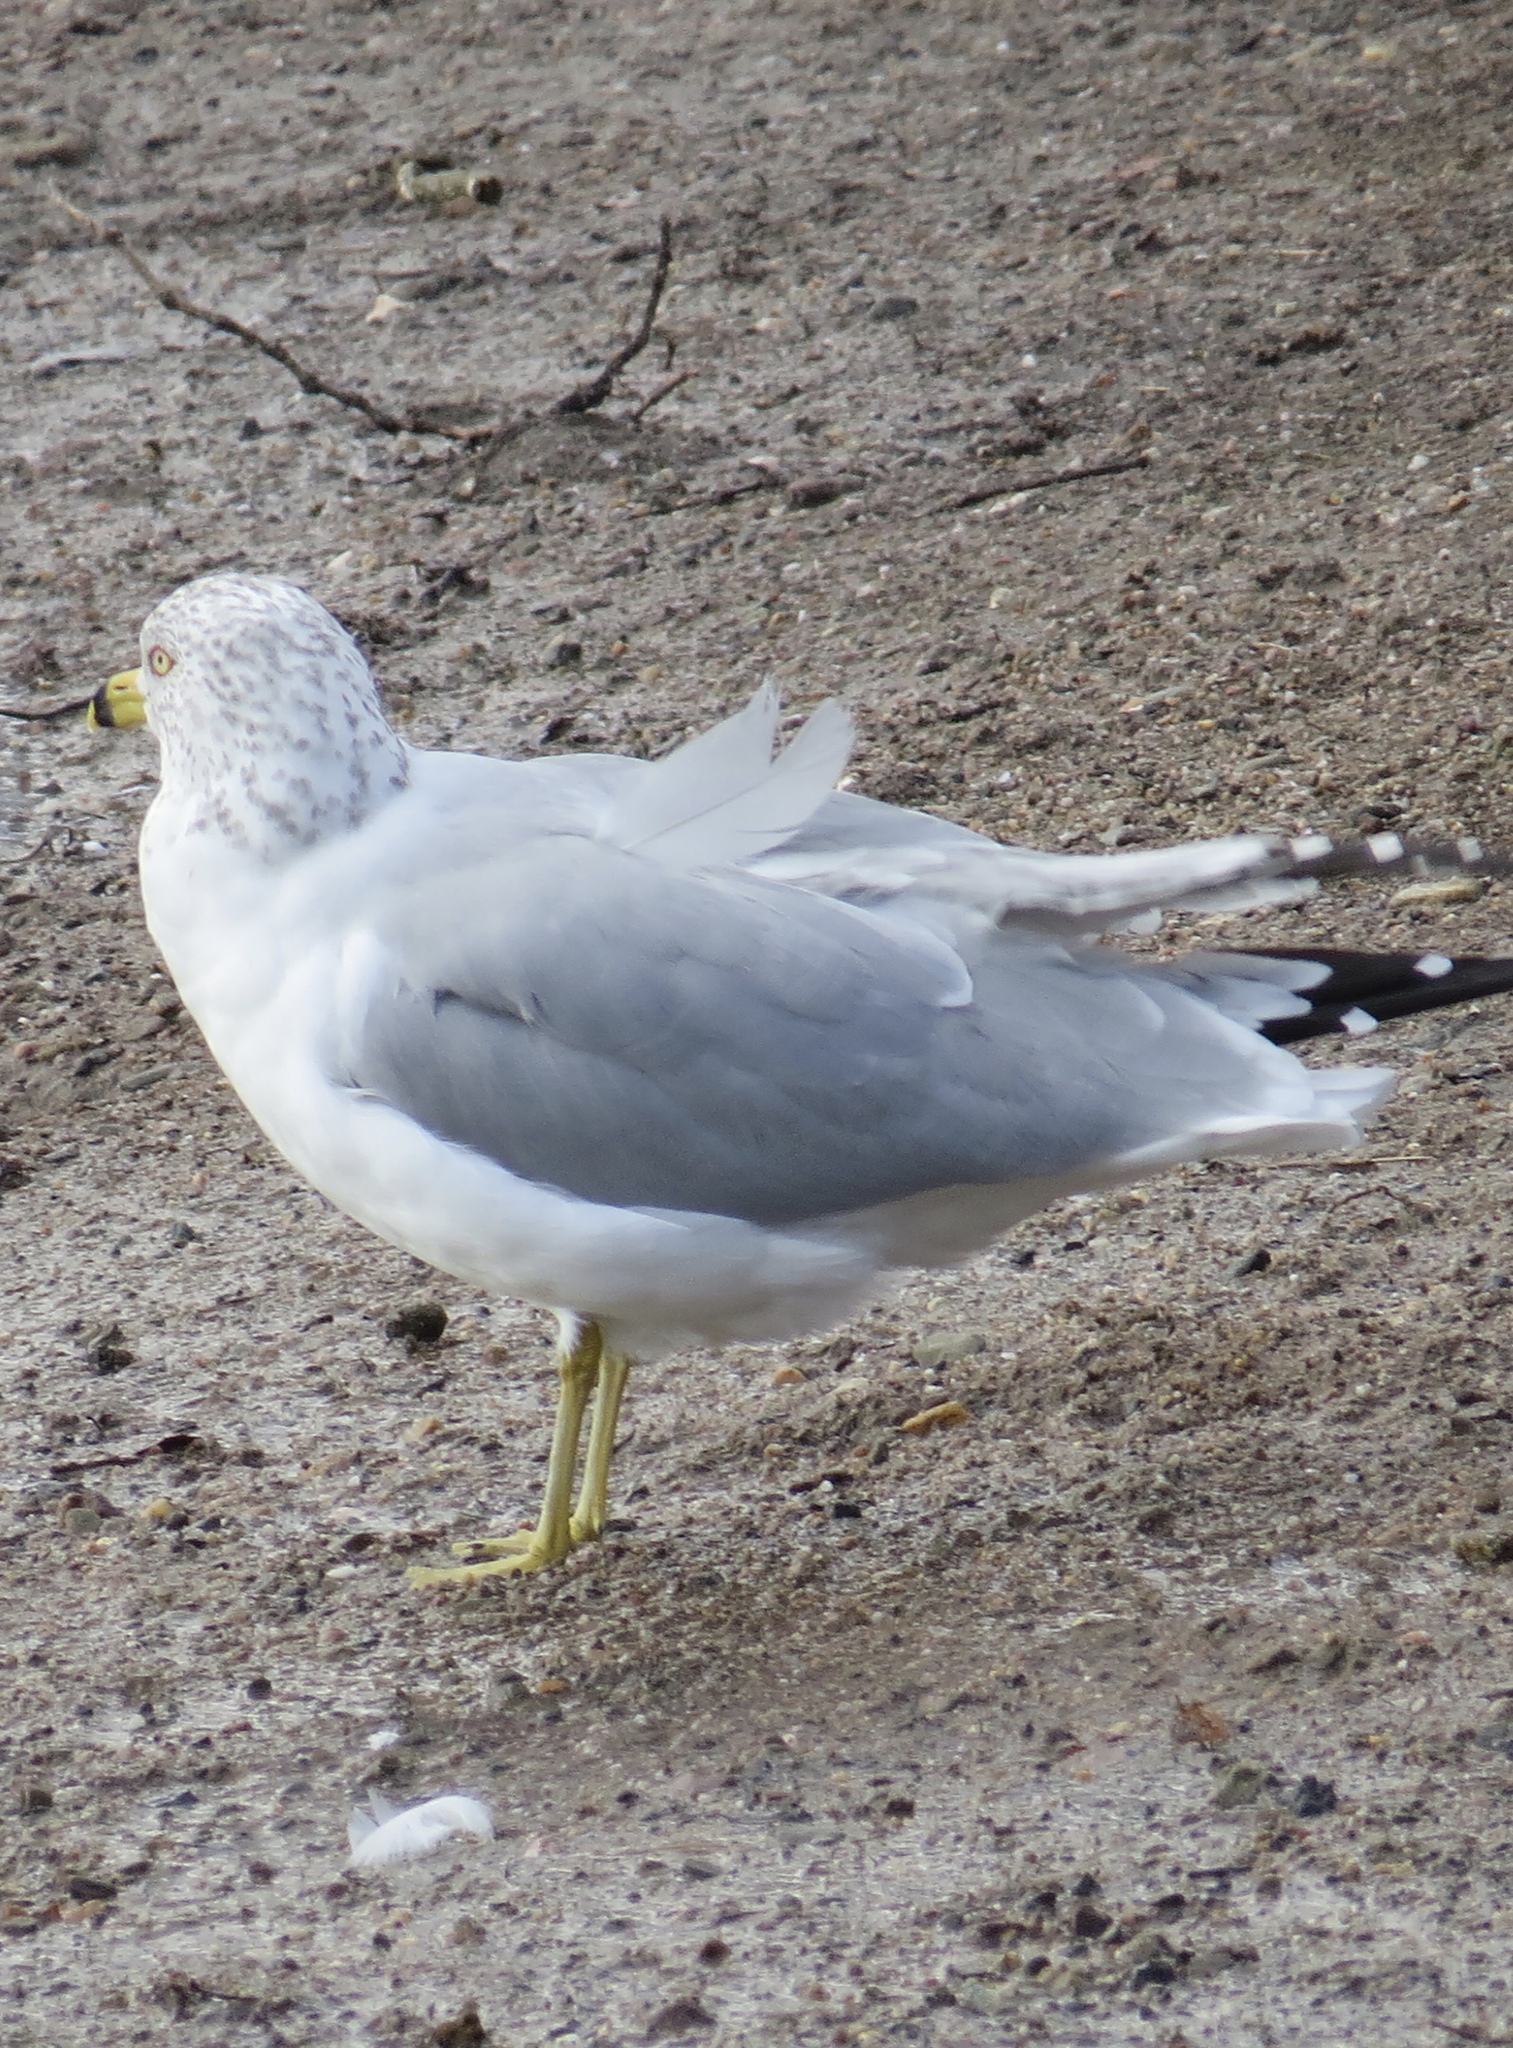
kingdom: Animalia
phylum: Chordata
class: Aves
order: Charadriiformes
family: Laridae
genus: Larus
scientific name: Larus delawarensis
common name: Ring-billed gull
